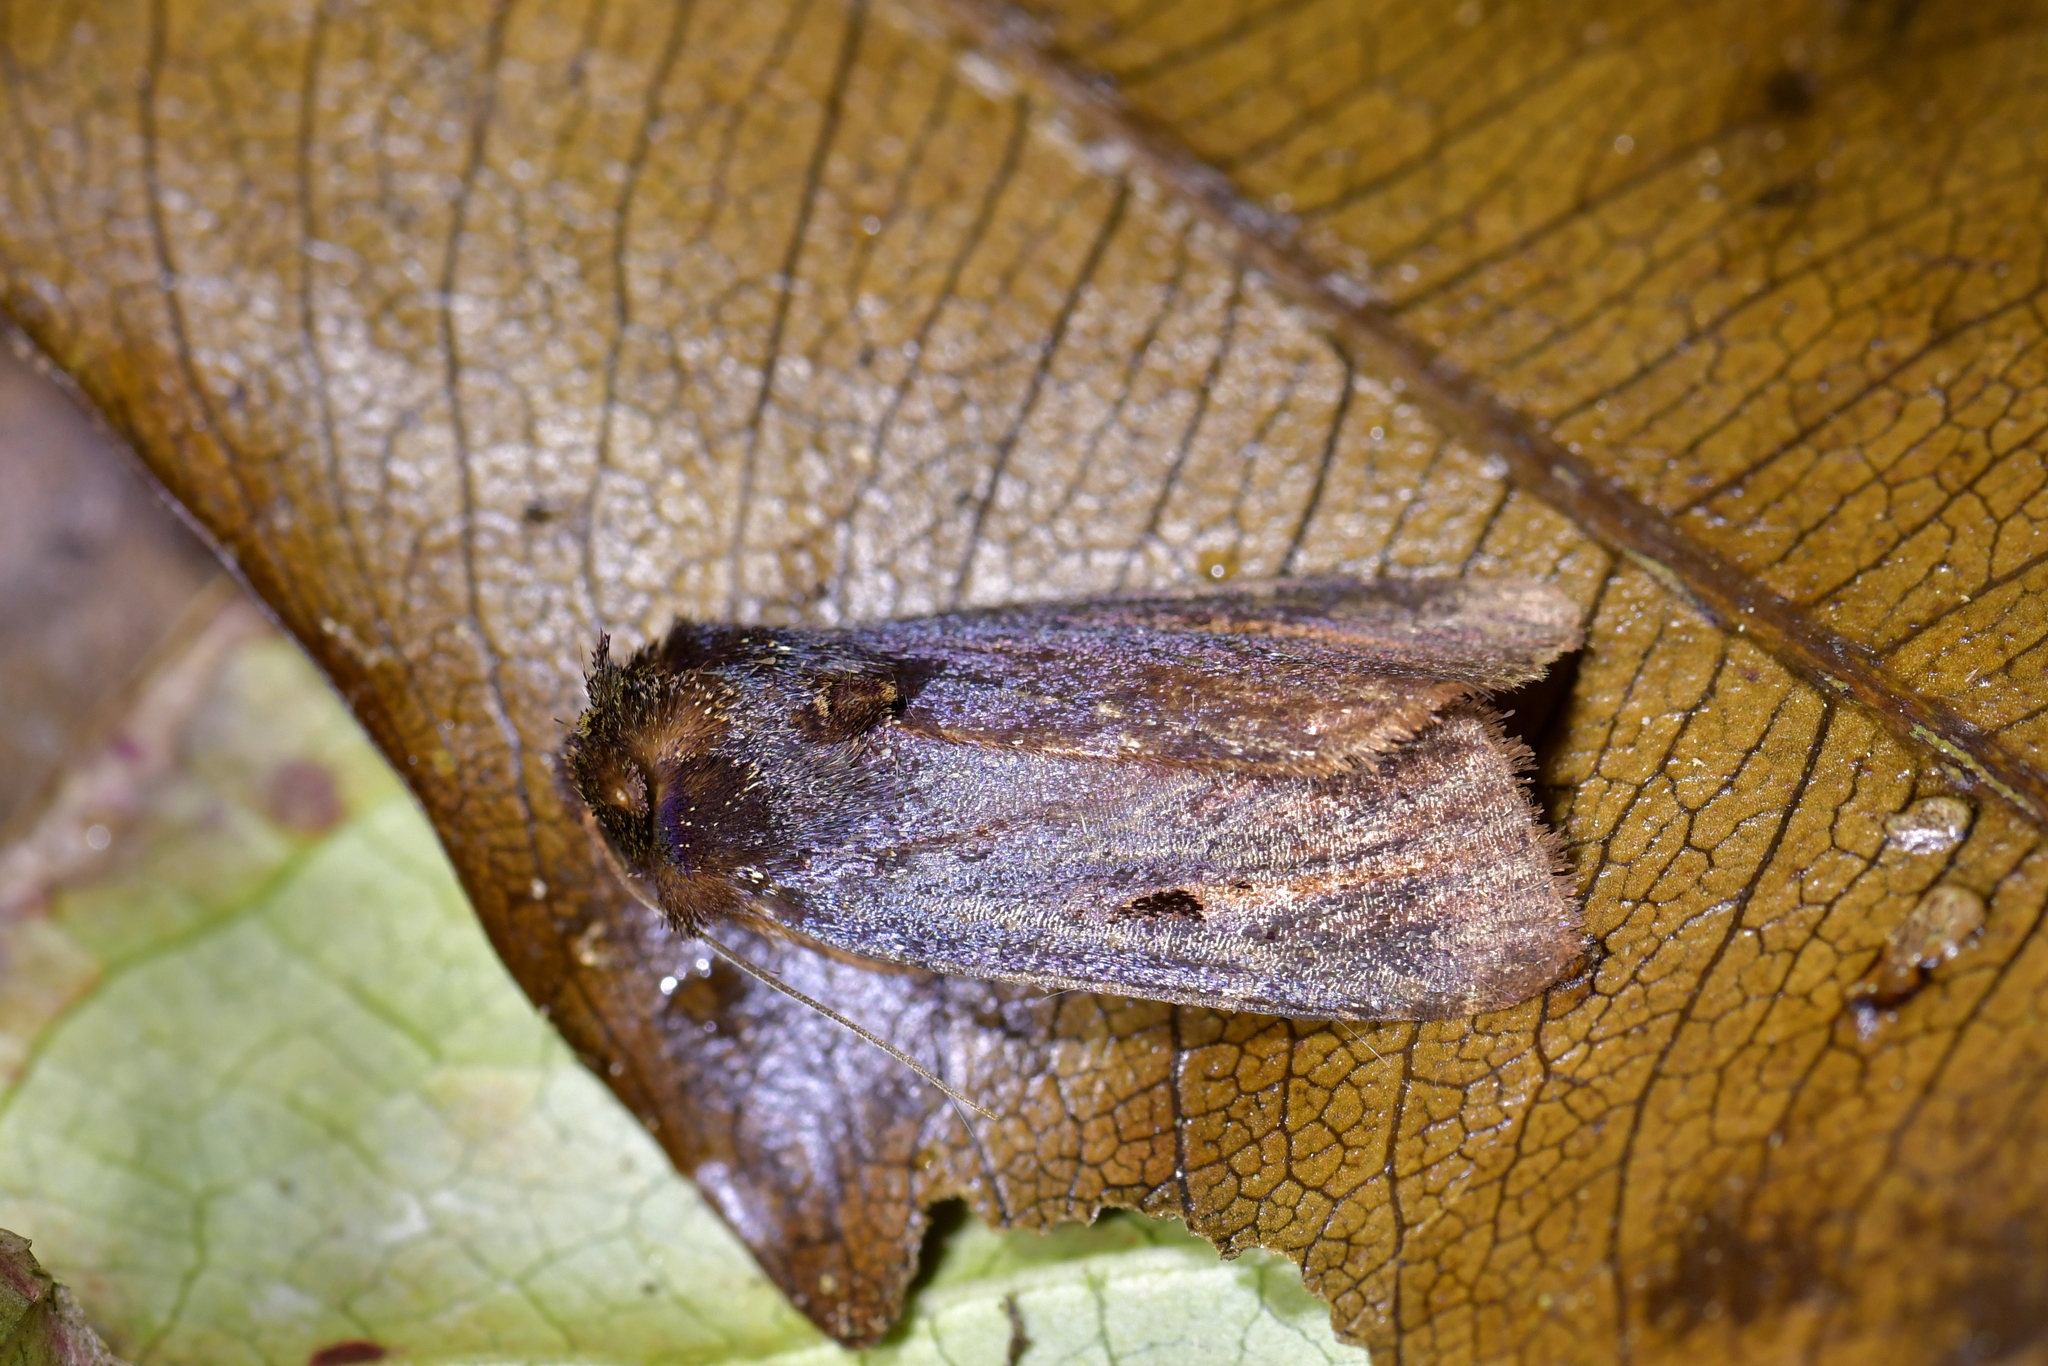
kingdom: Animalia
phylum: Arthropoda
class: Insecta
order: Lepidoptera
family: Noctuidae
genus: Austramathes
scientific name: Austramathes purpurea
